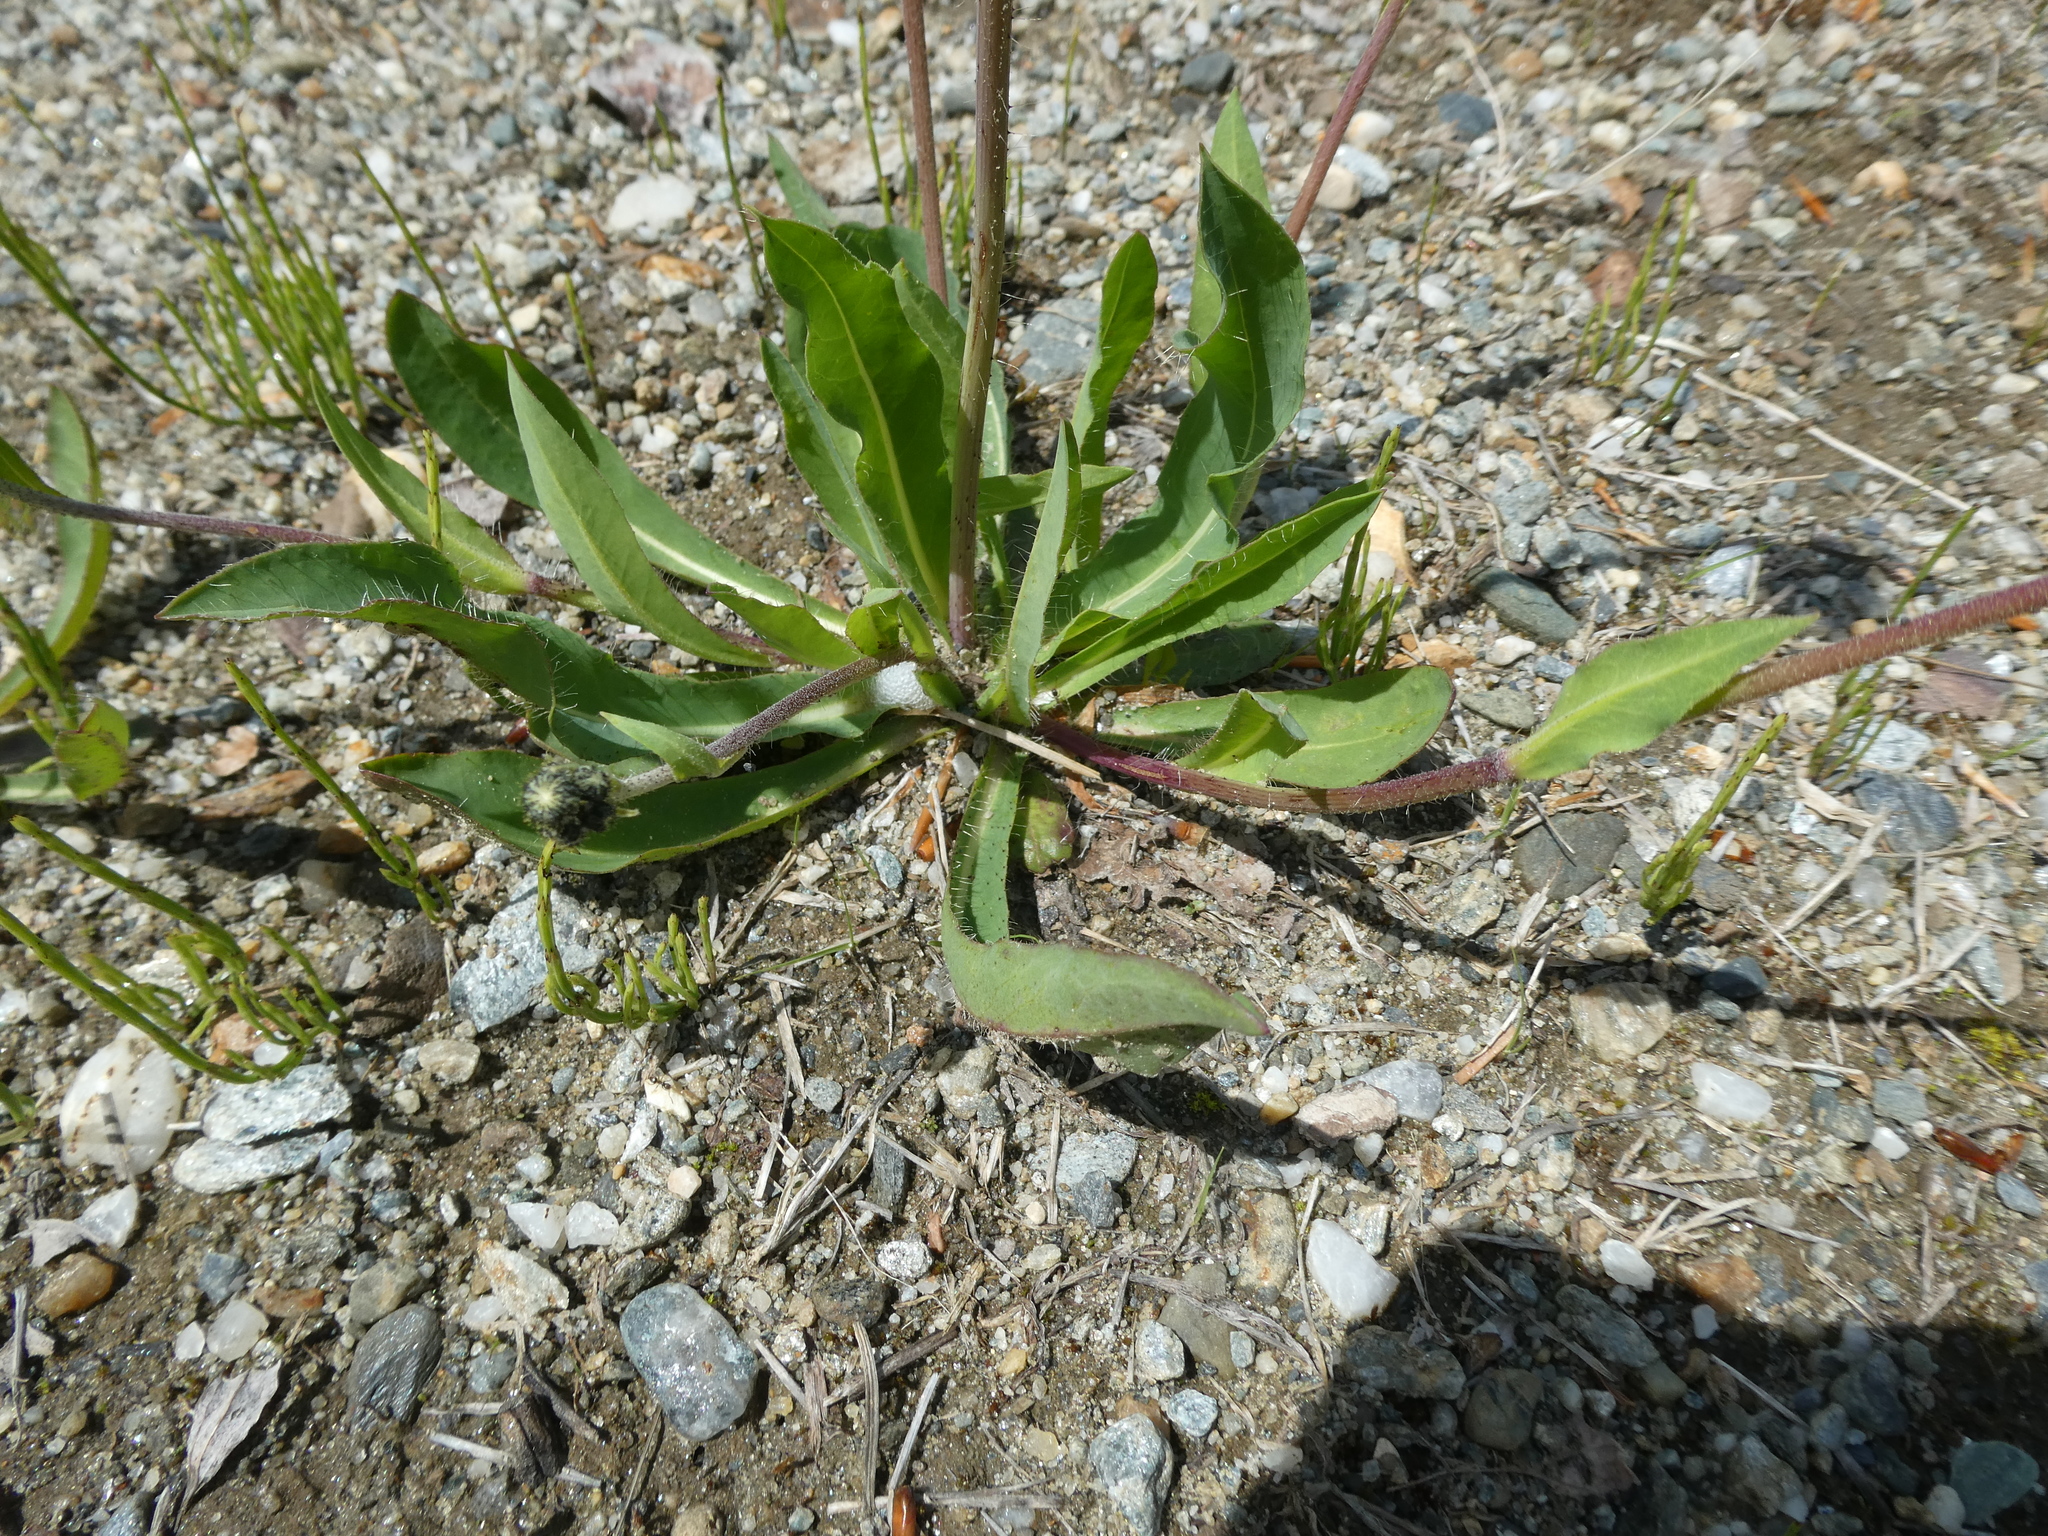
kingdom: Plantae
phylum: Tracheophyta
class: Magnoliopsida
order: Asterales
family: Asteraceae
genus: Pilosella
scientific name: Pilosella caespitosa
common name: Yellow fox-and-cubs
